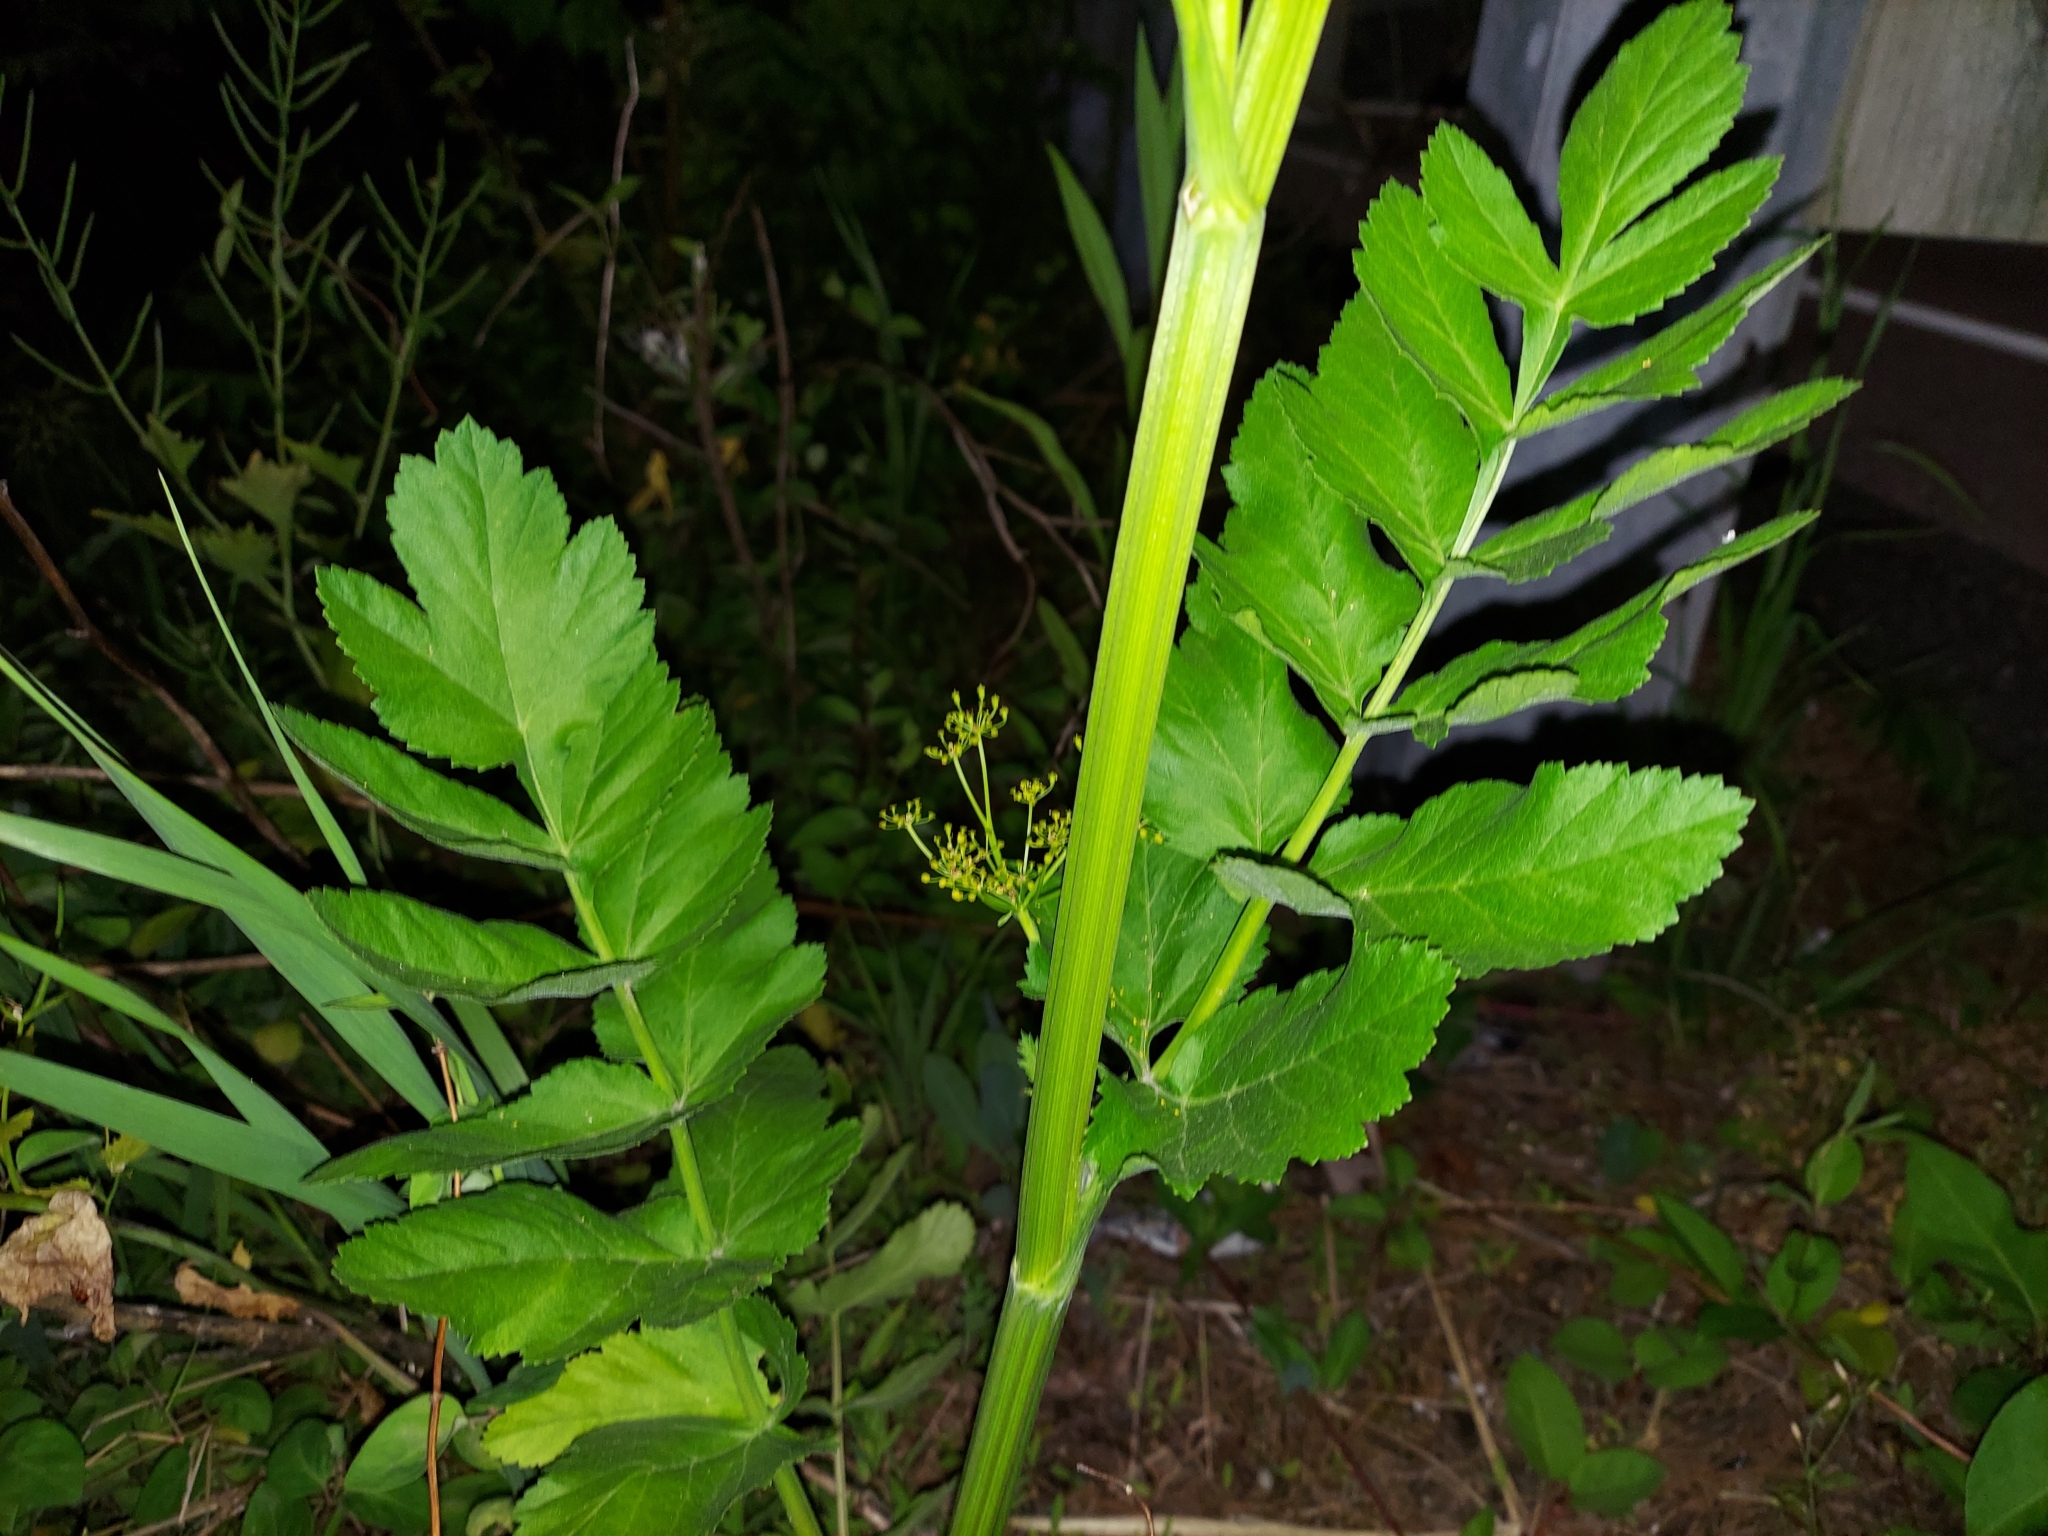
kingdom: Plantae
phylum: Tracheophyta
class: Magnoliopsida
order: Apiales
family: Apiaceae
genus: Pastinaca
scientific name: Pastinaca sativa
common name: Wild parsnip
